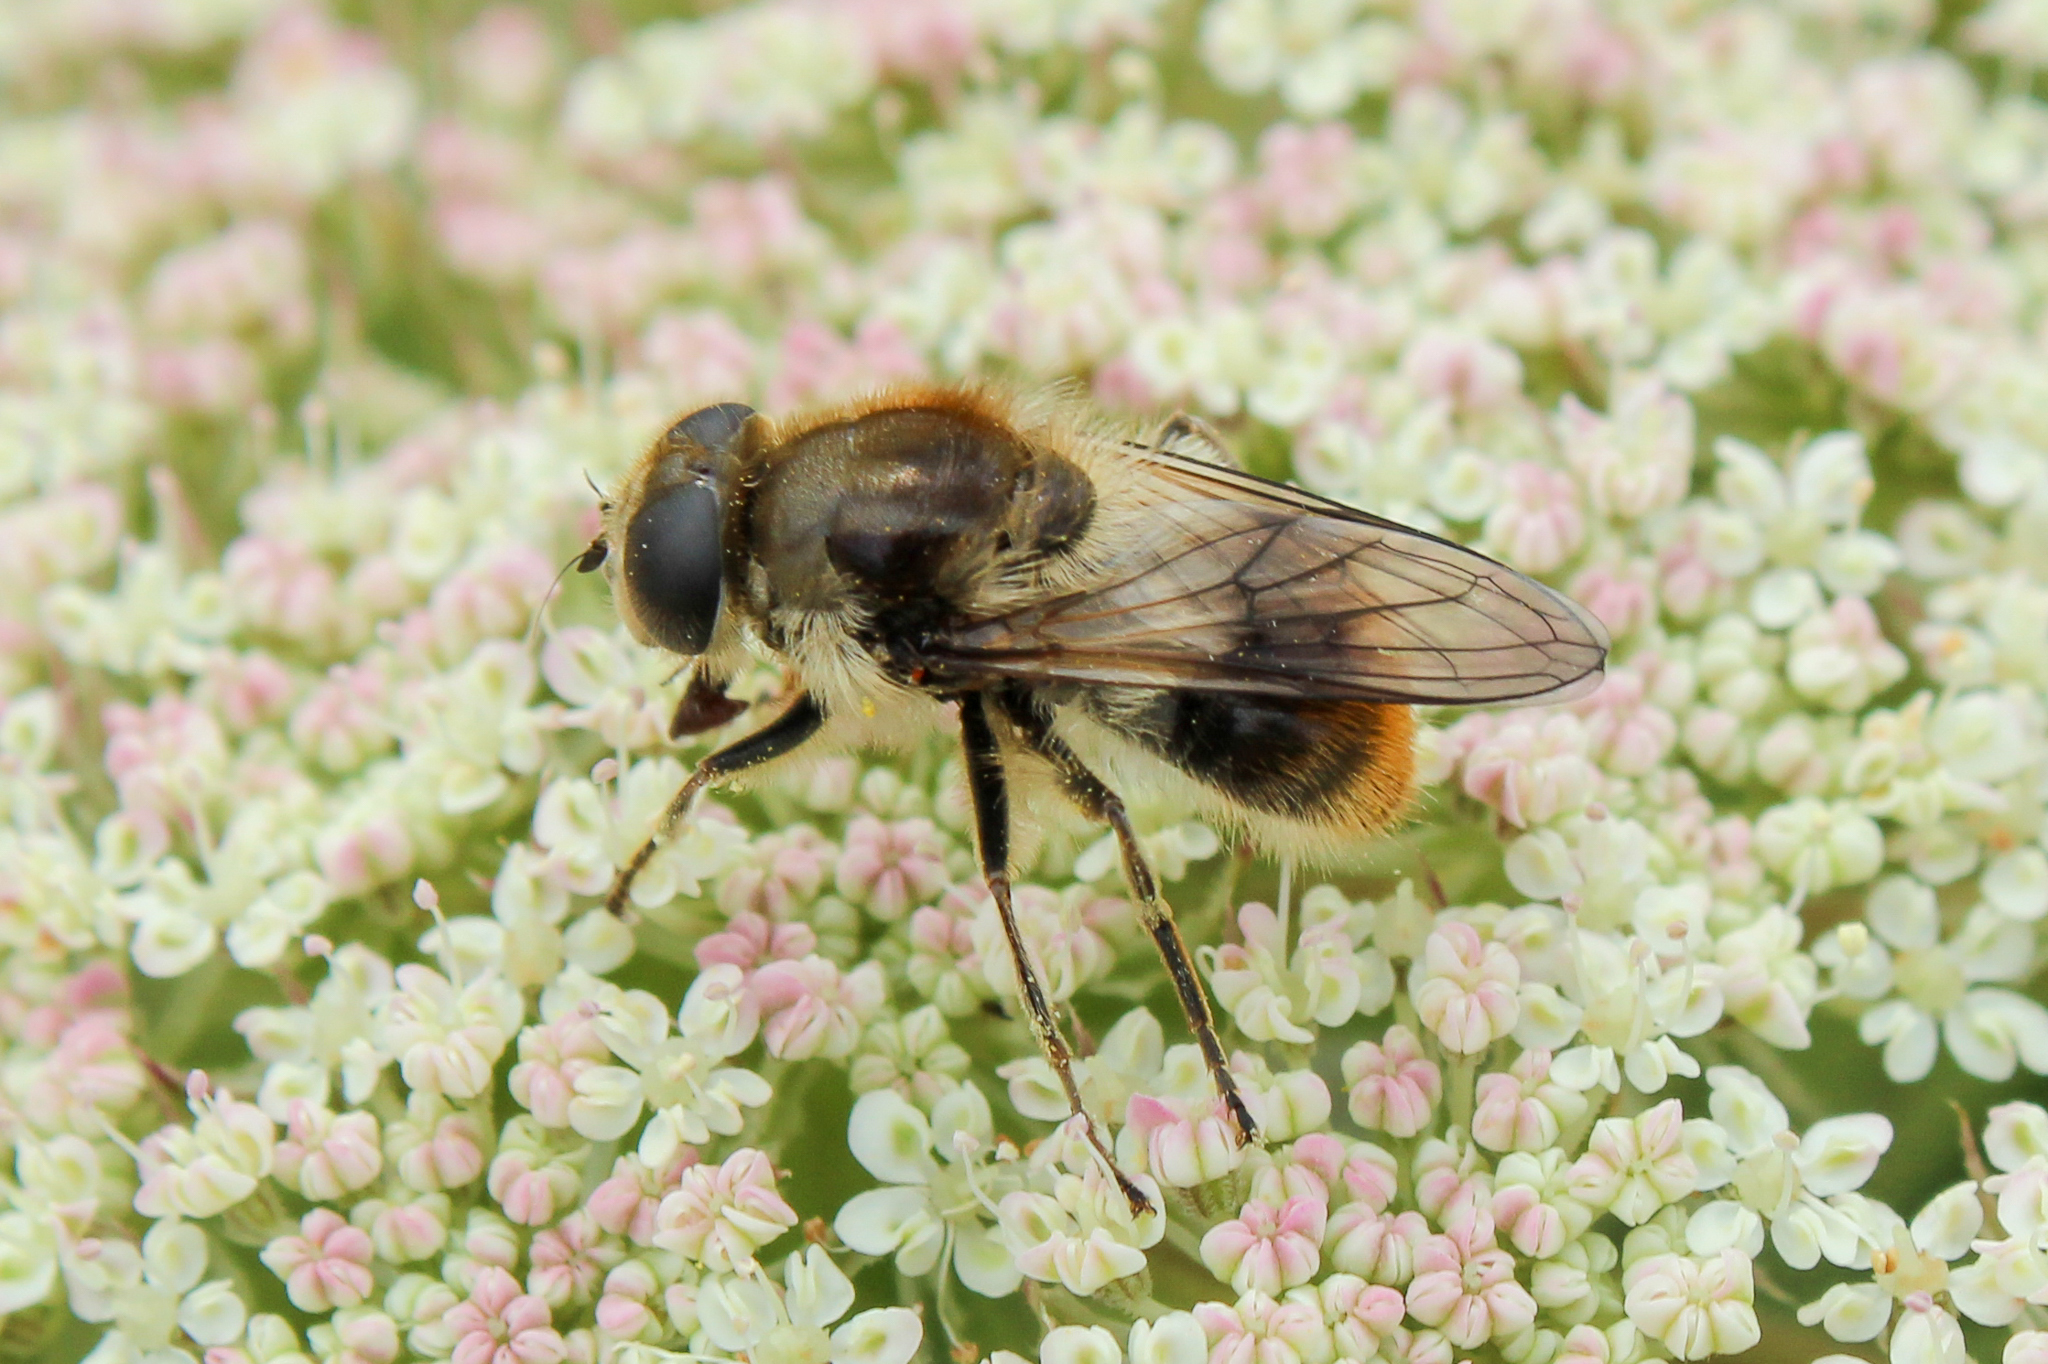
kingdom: Animalia
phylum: Arthropoda
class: Insecta
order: Diptera
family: Syrphidae
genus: Cheilosia
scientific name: Cheilosia illustrata
